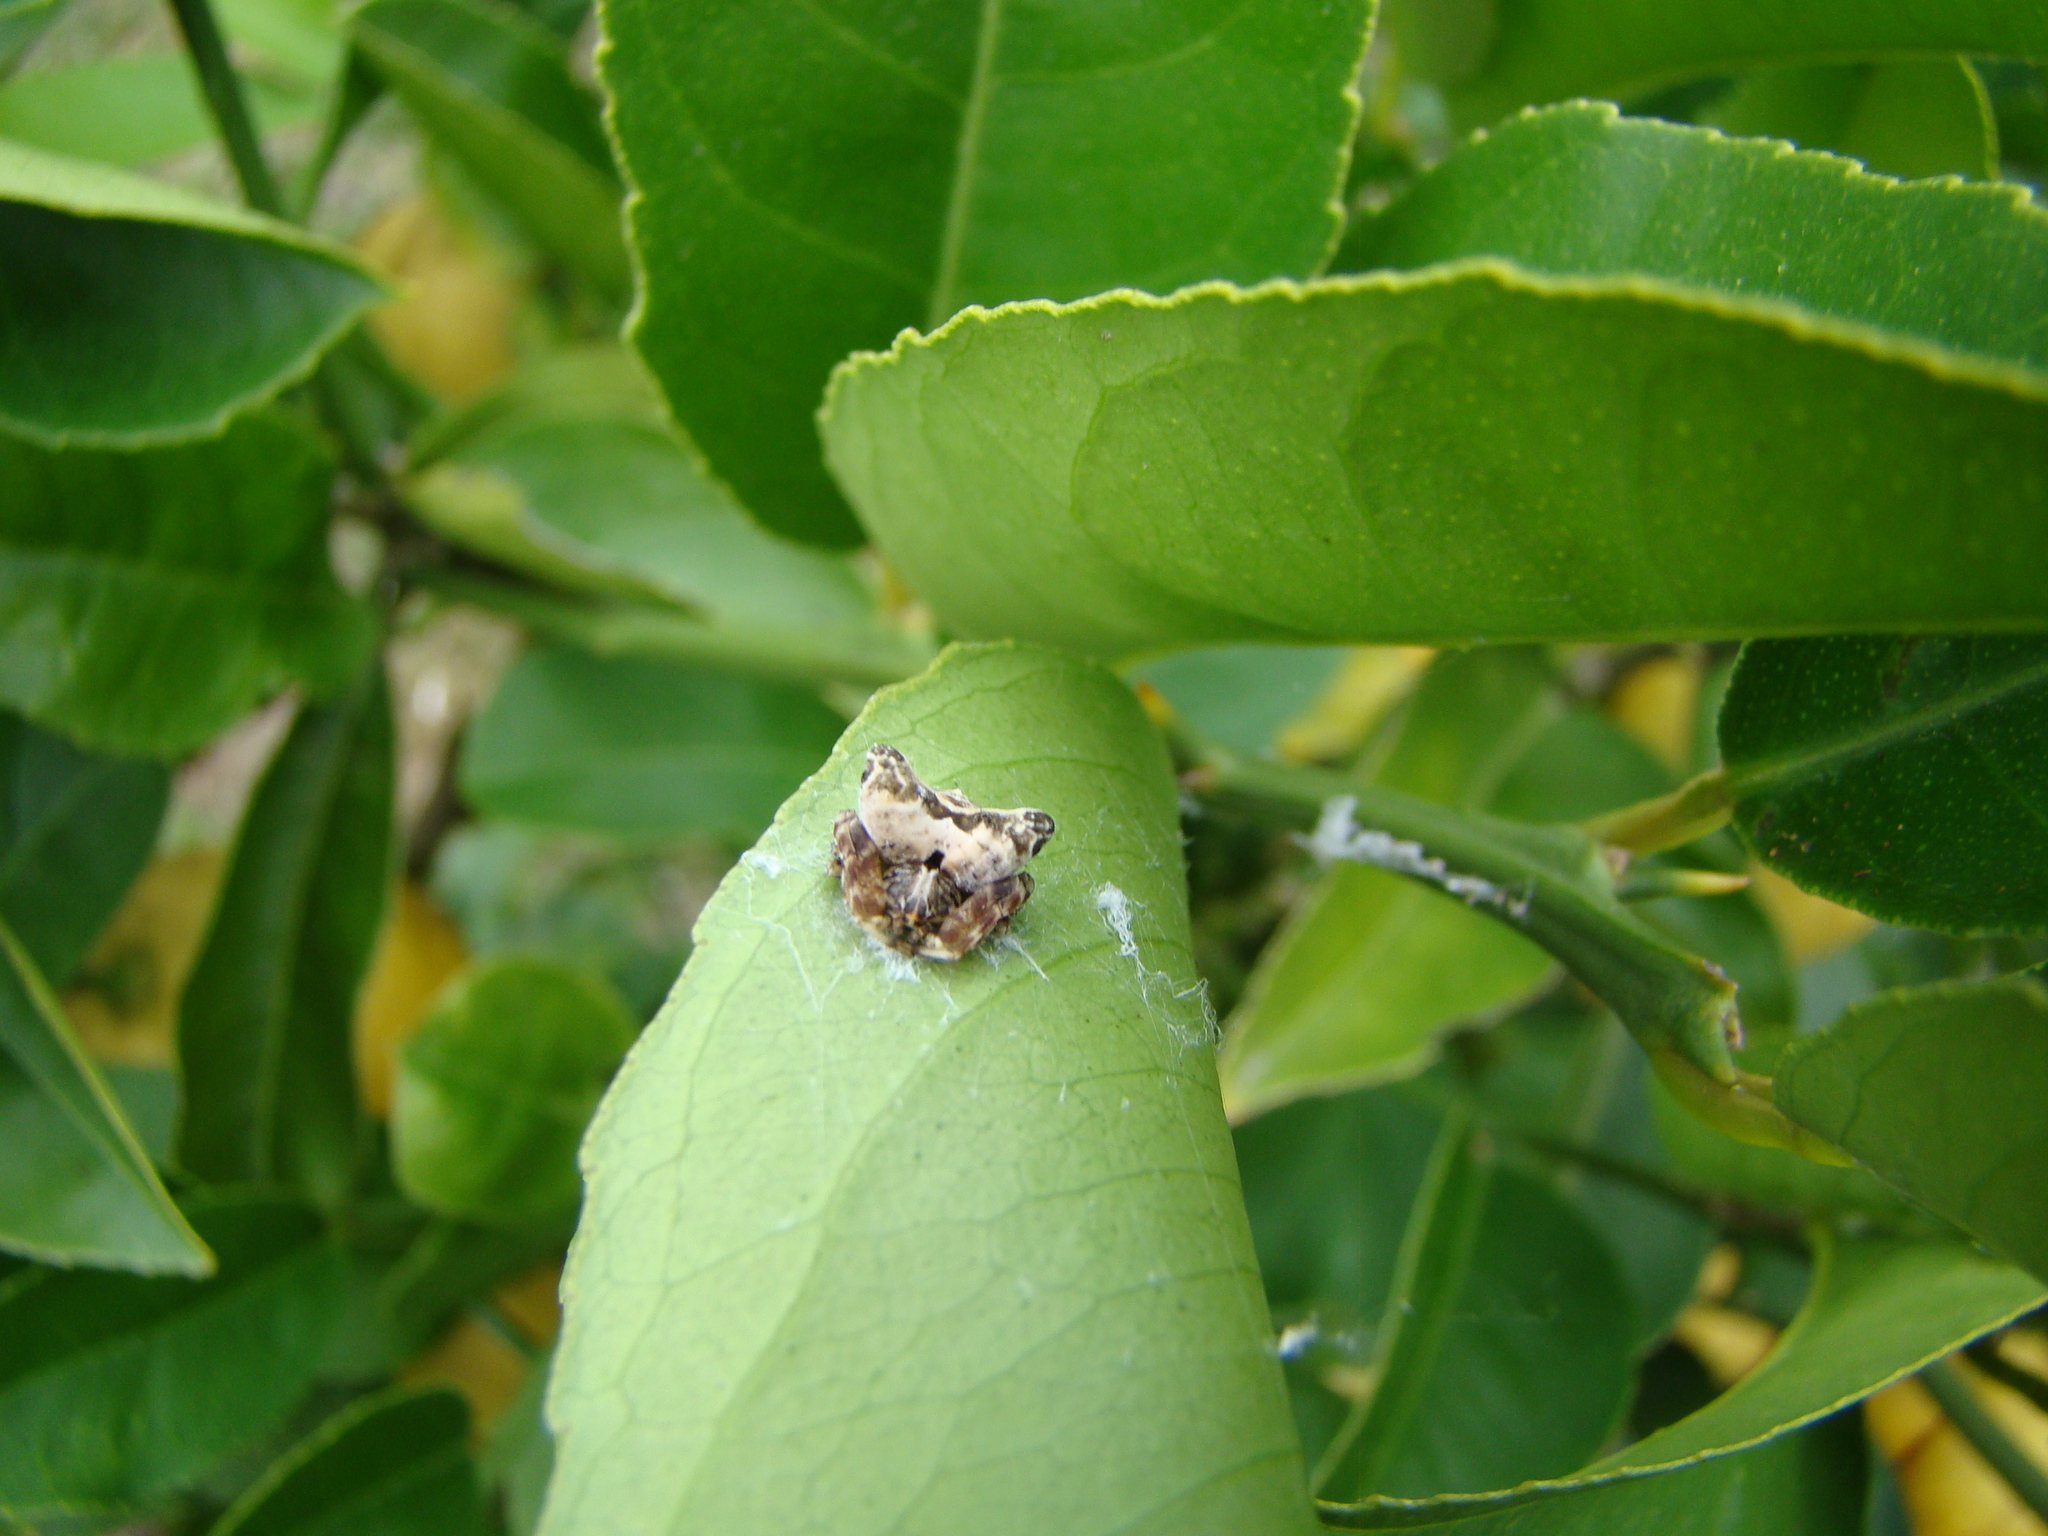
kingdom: Animalia
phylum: Arthropoda
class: Arachnida
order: Araneae
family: Araneidae
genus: Celaenia
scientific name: Celaenia olivacea
